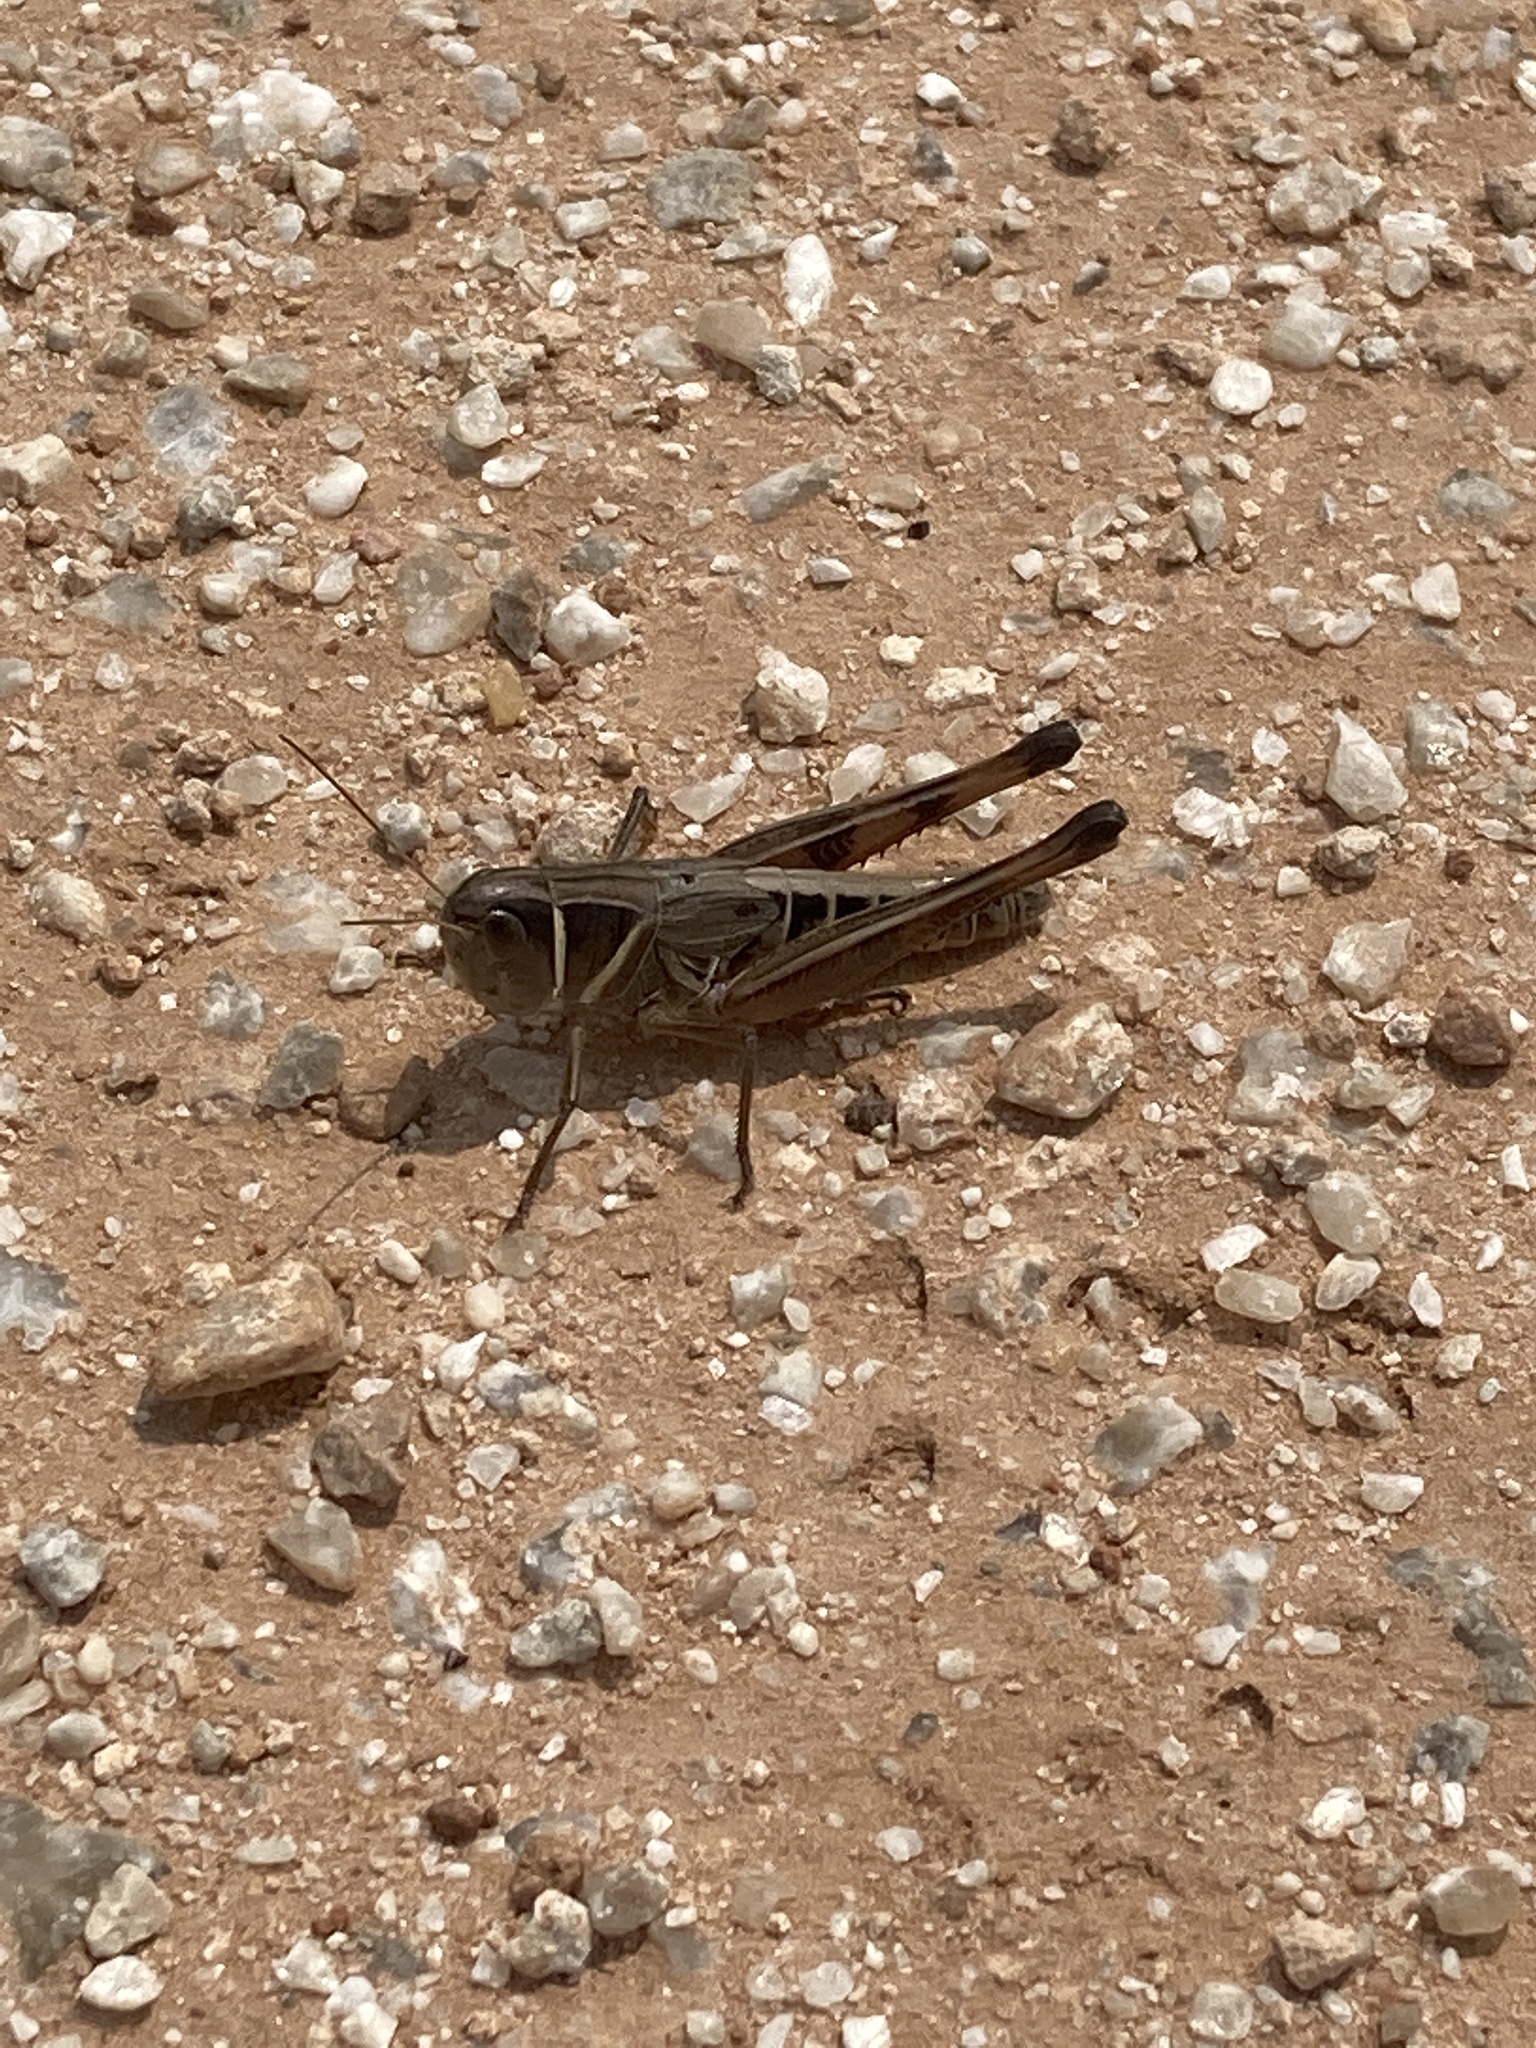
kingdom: Animalia
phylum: Arthropoda
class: Insecta
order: Orthoptera
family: Acrididae
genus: Boopedon
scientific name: Boopedon auriventris
